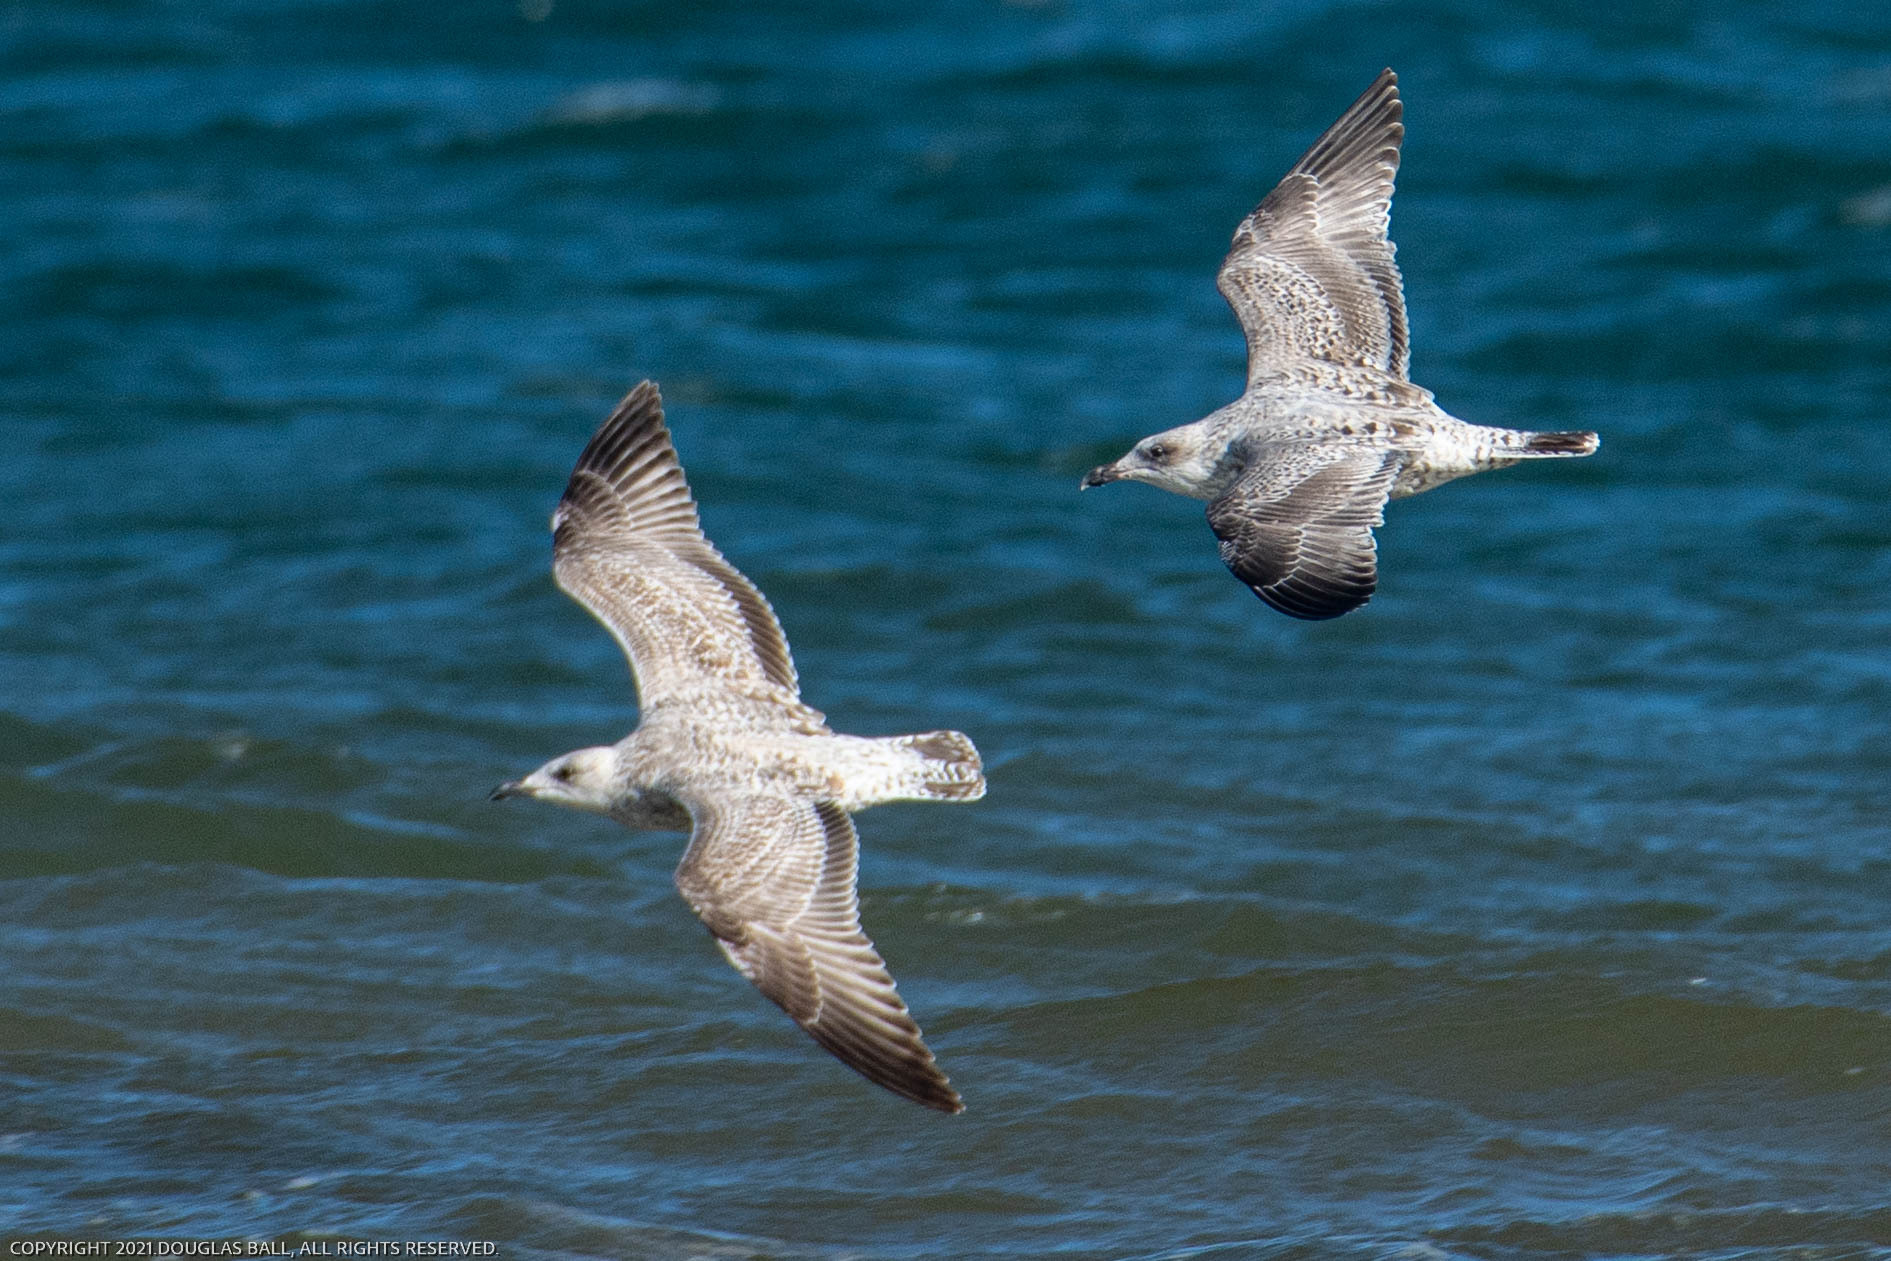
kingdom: Animalia
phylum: Chordata
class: Aves
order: Charadriiformes
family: Laridae
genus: Larus
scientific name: Larus argentatus
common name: Herring gull
